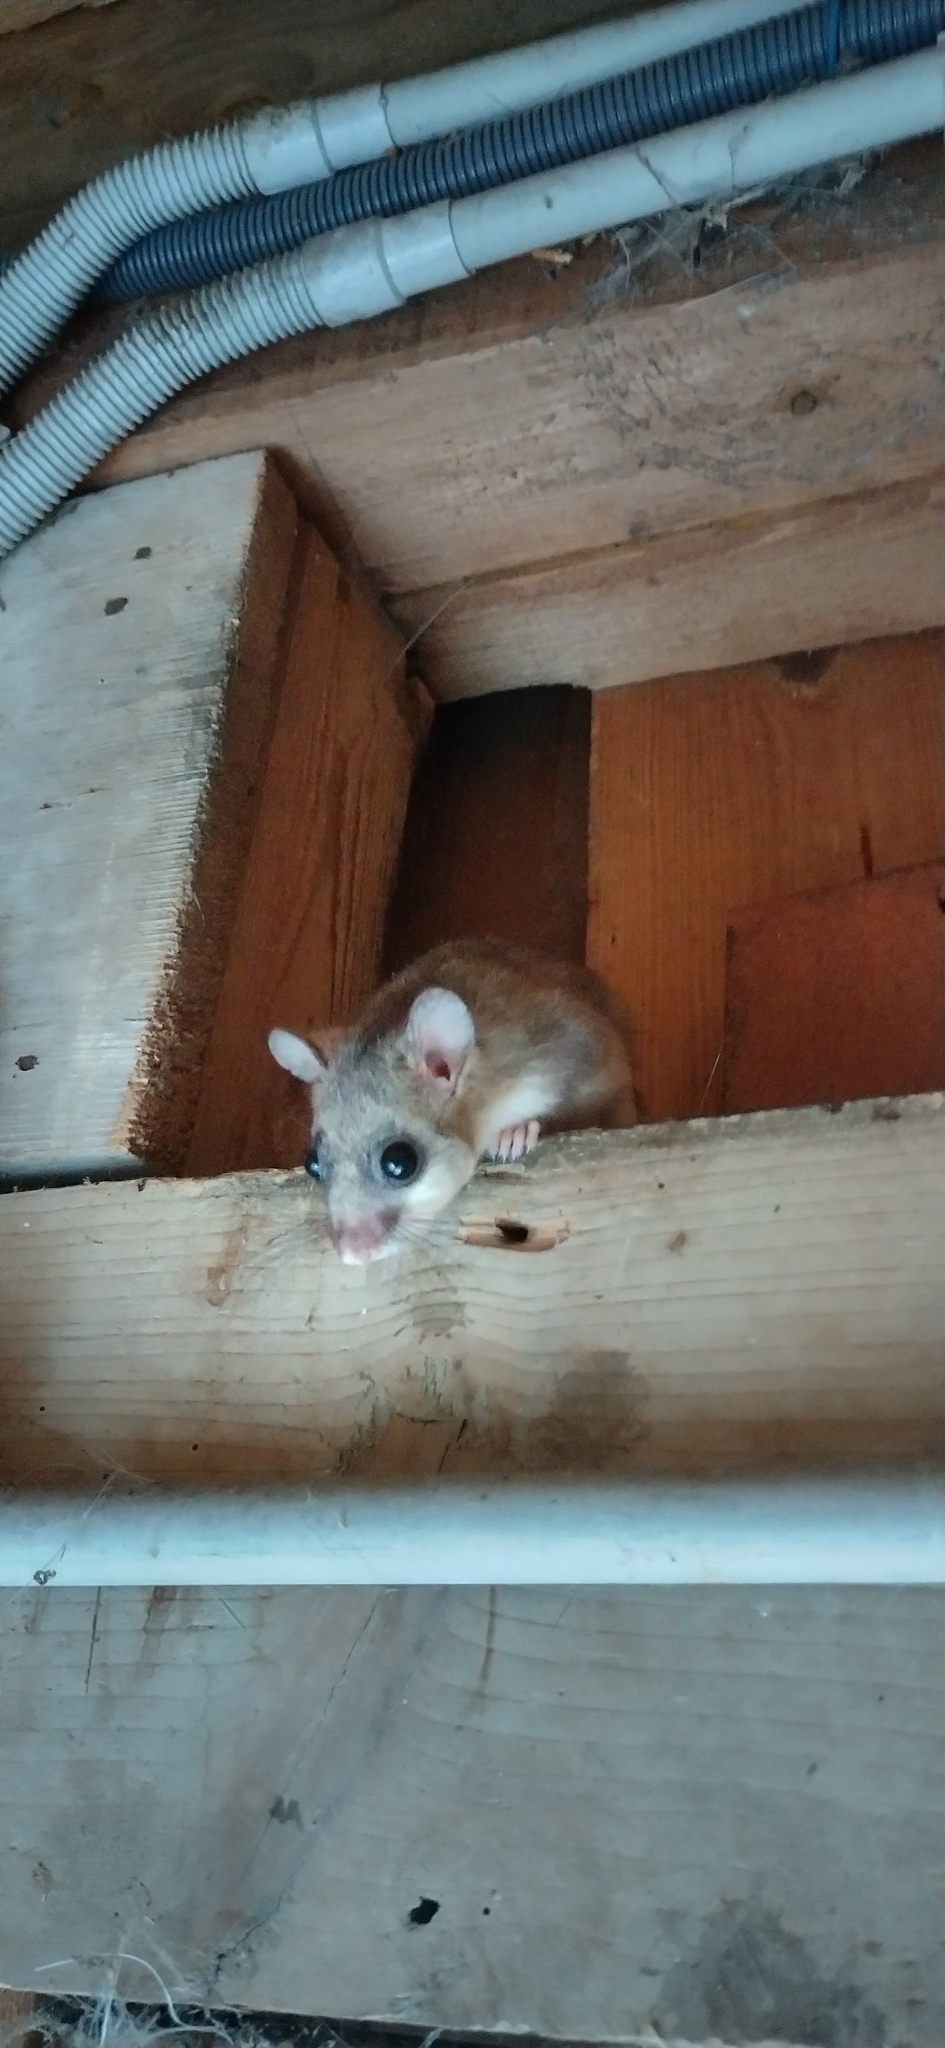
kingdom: Animalia
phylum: Chordata
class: Mammalia
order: Rodentia
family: Gliridae
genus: Glis
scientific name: Glis glis
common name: Fat dormouse
